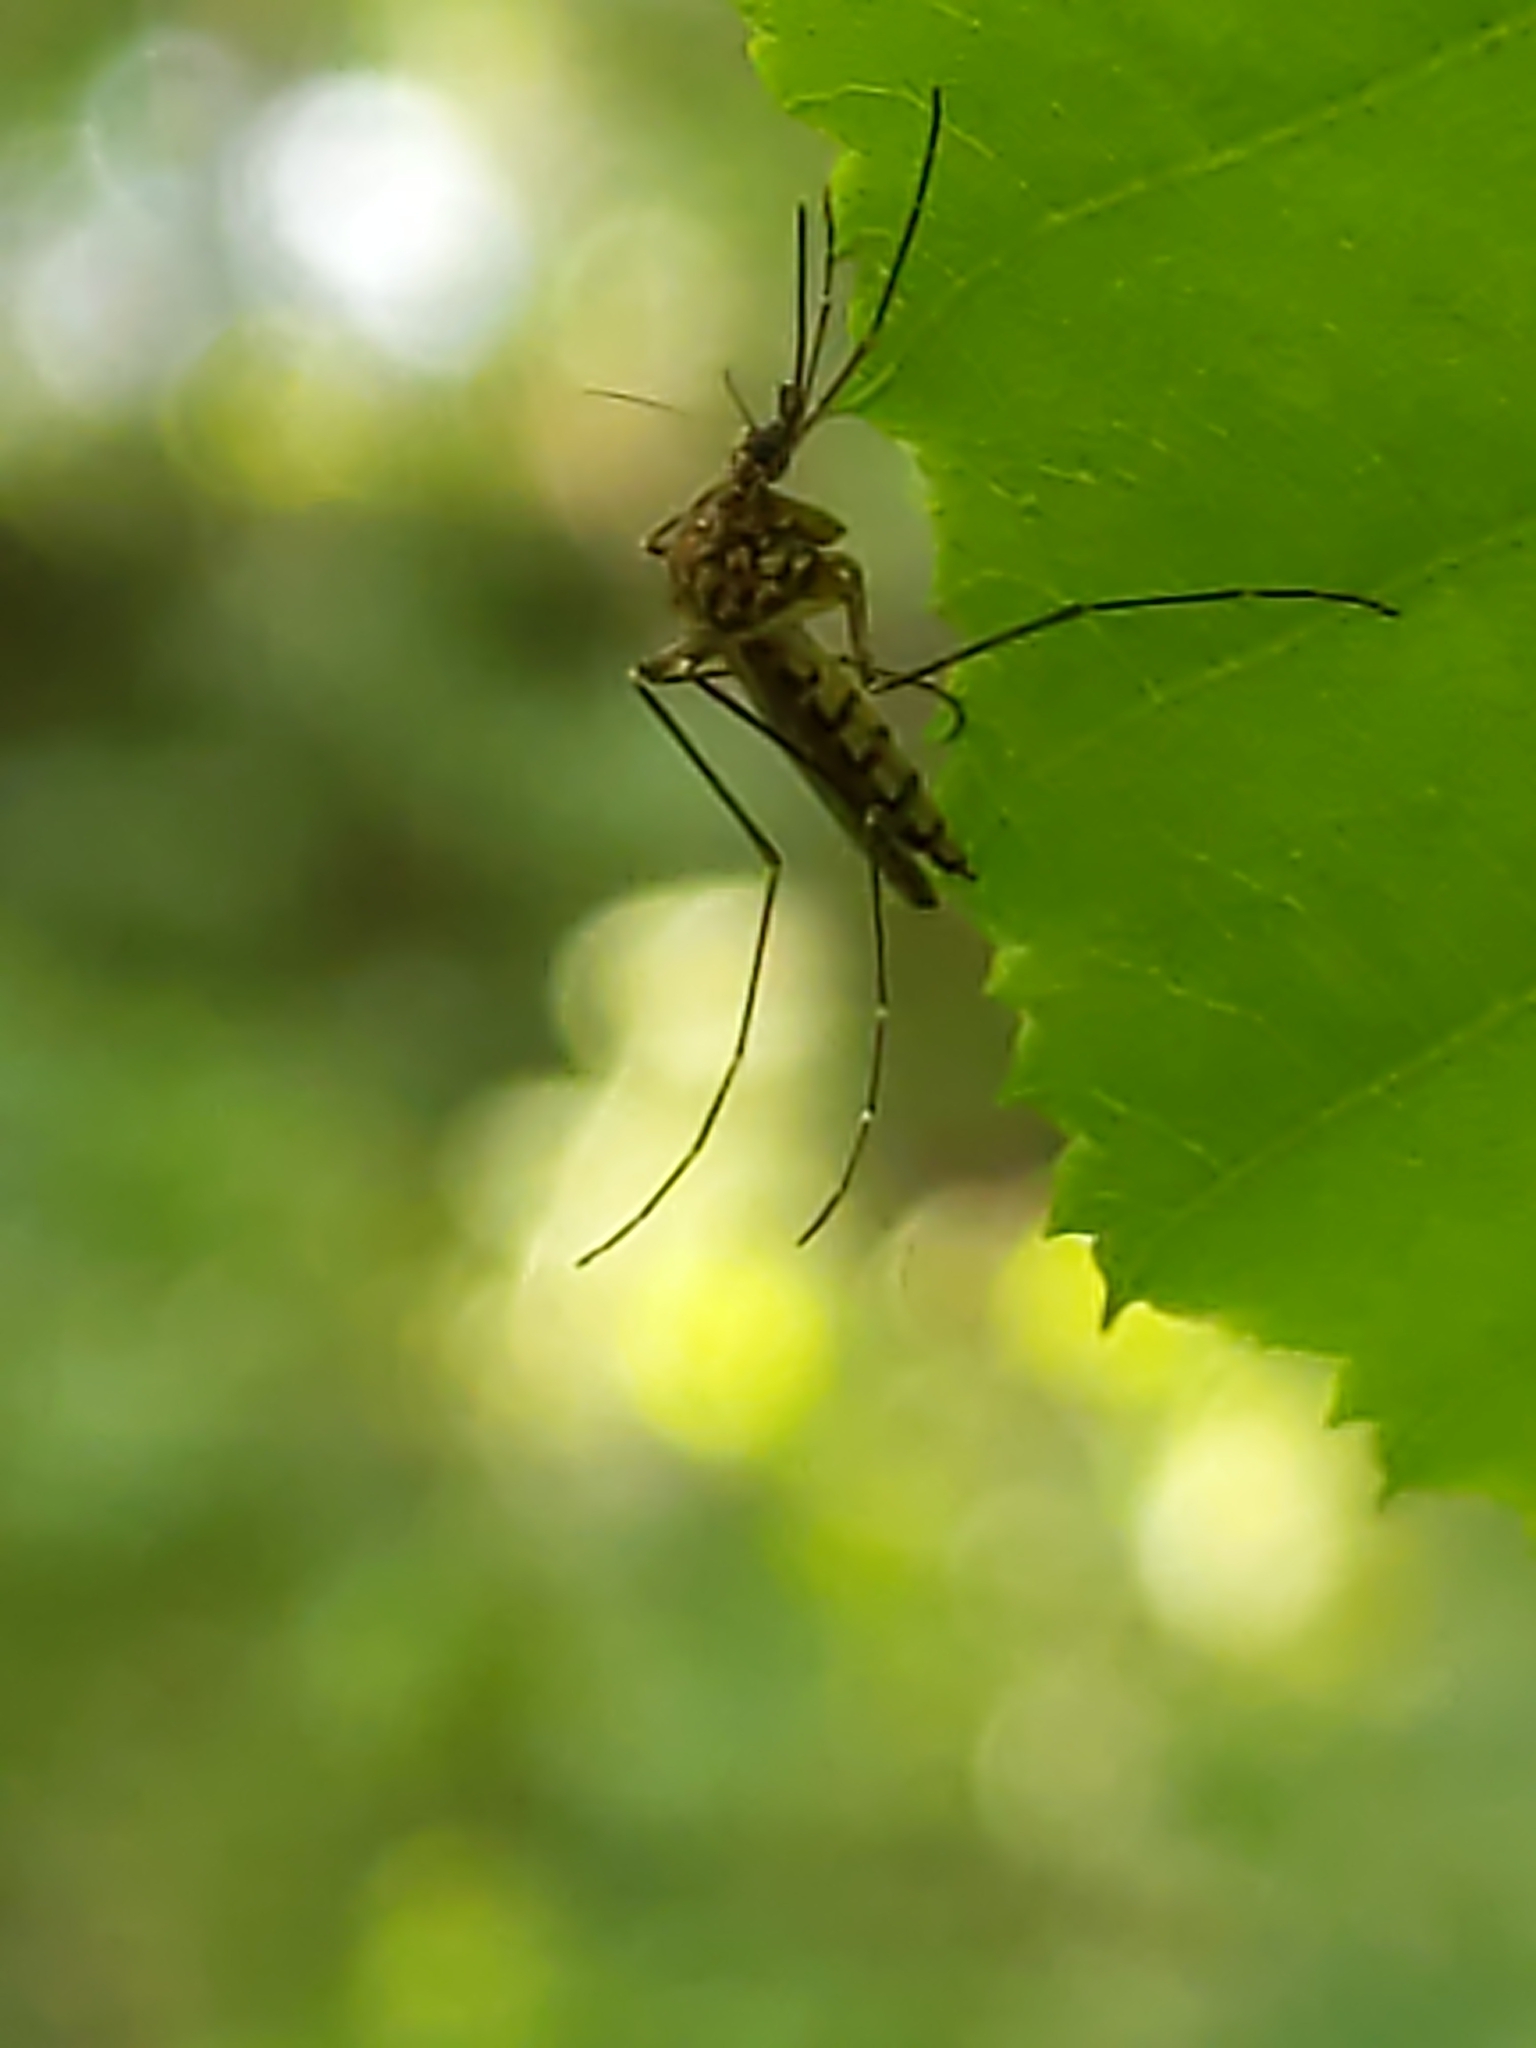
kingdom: Animalia
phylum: Arthropoda
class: Insecta
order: Diptera
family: Culicidae
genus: Aedes
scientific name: Aedes vexans
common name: Inland floodwater mosquito
